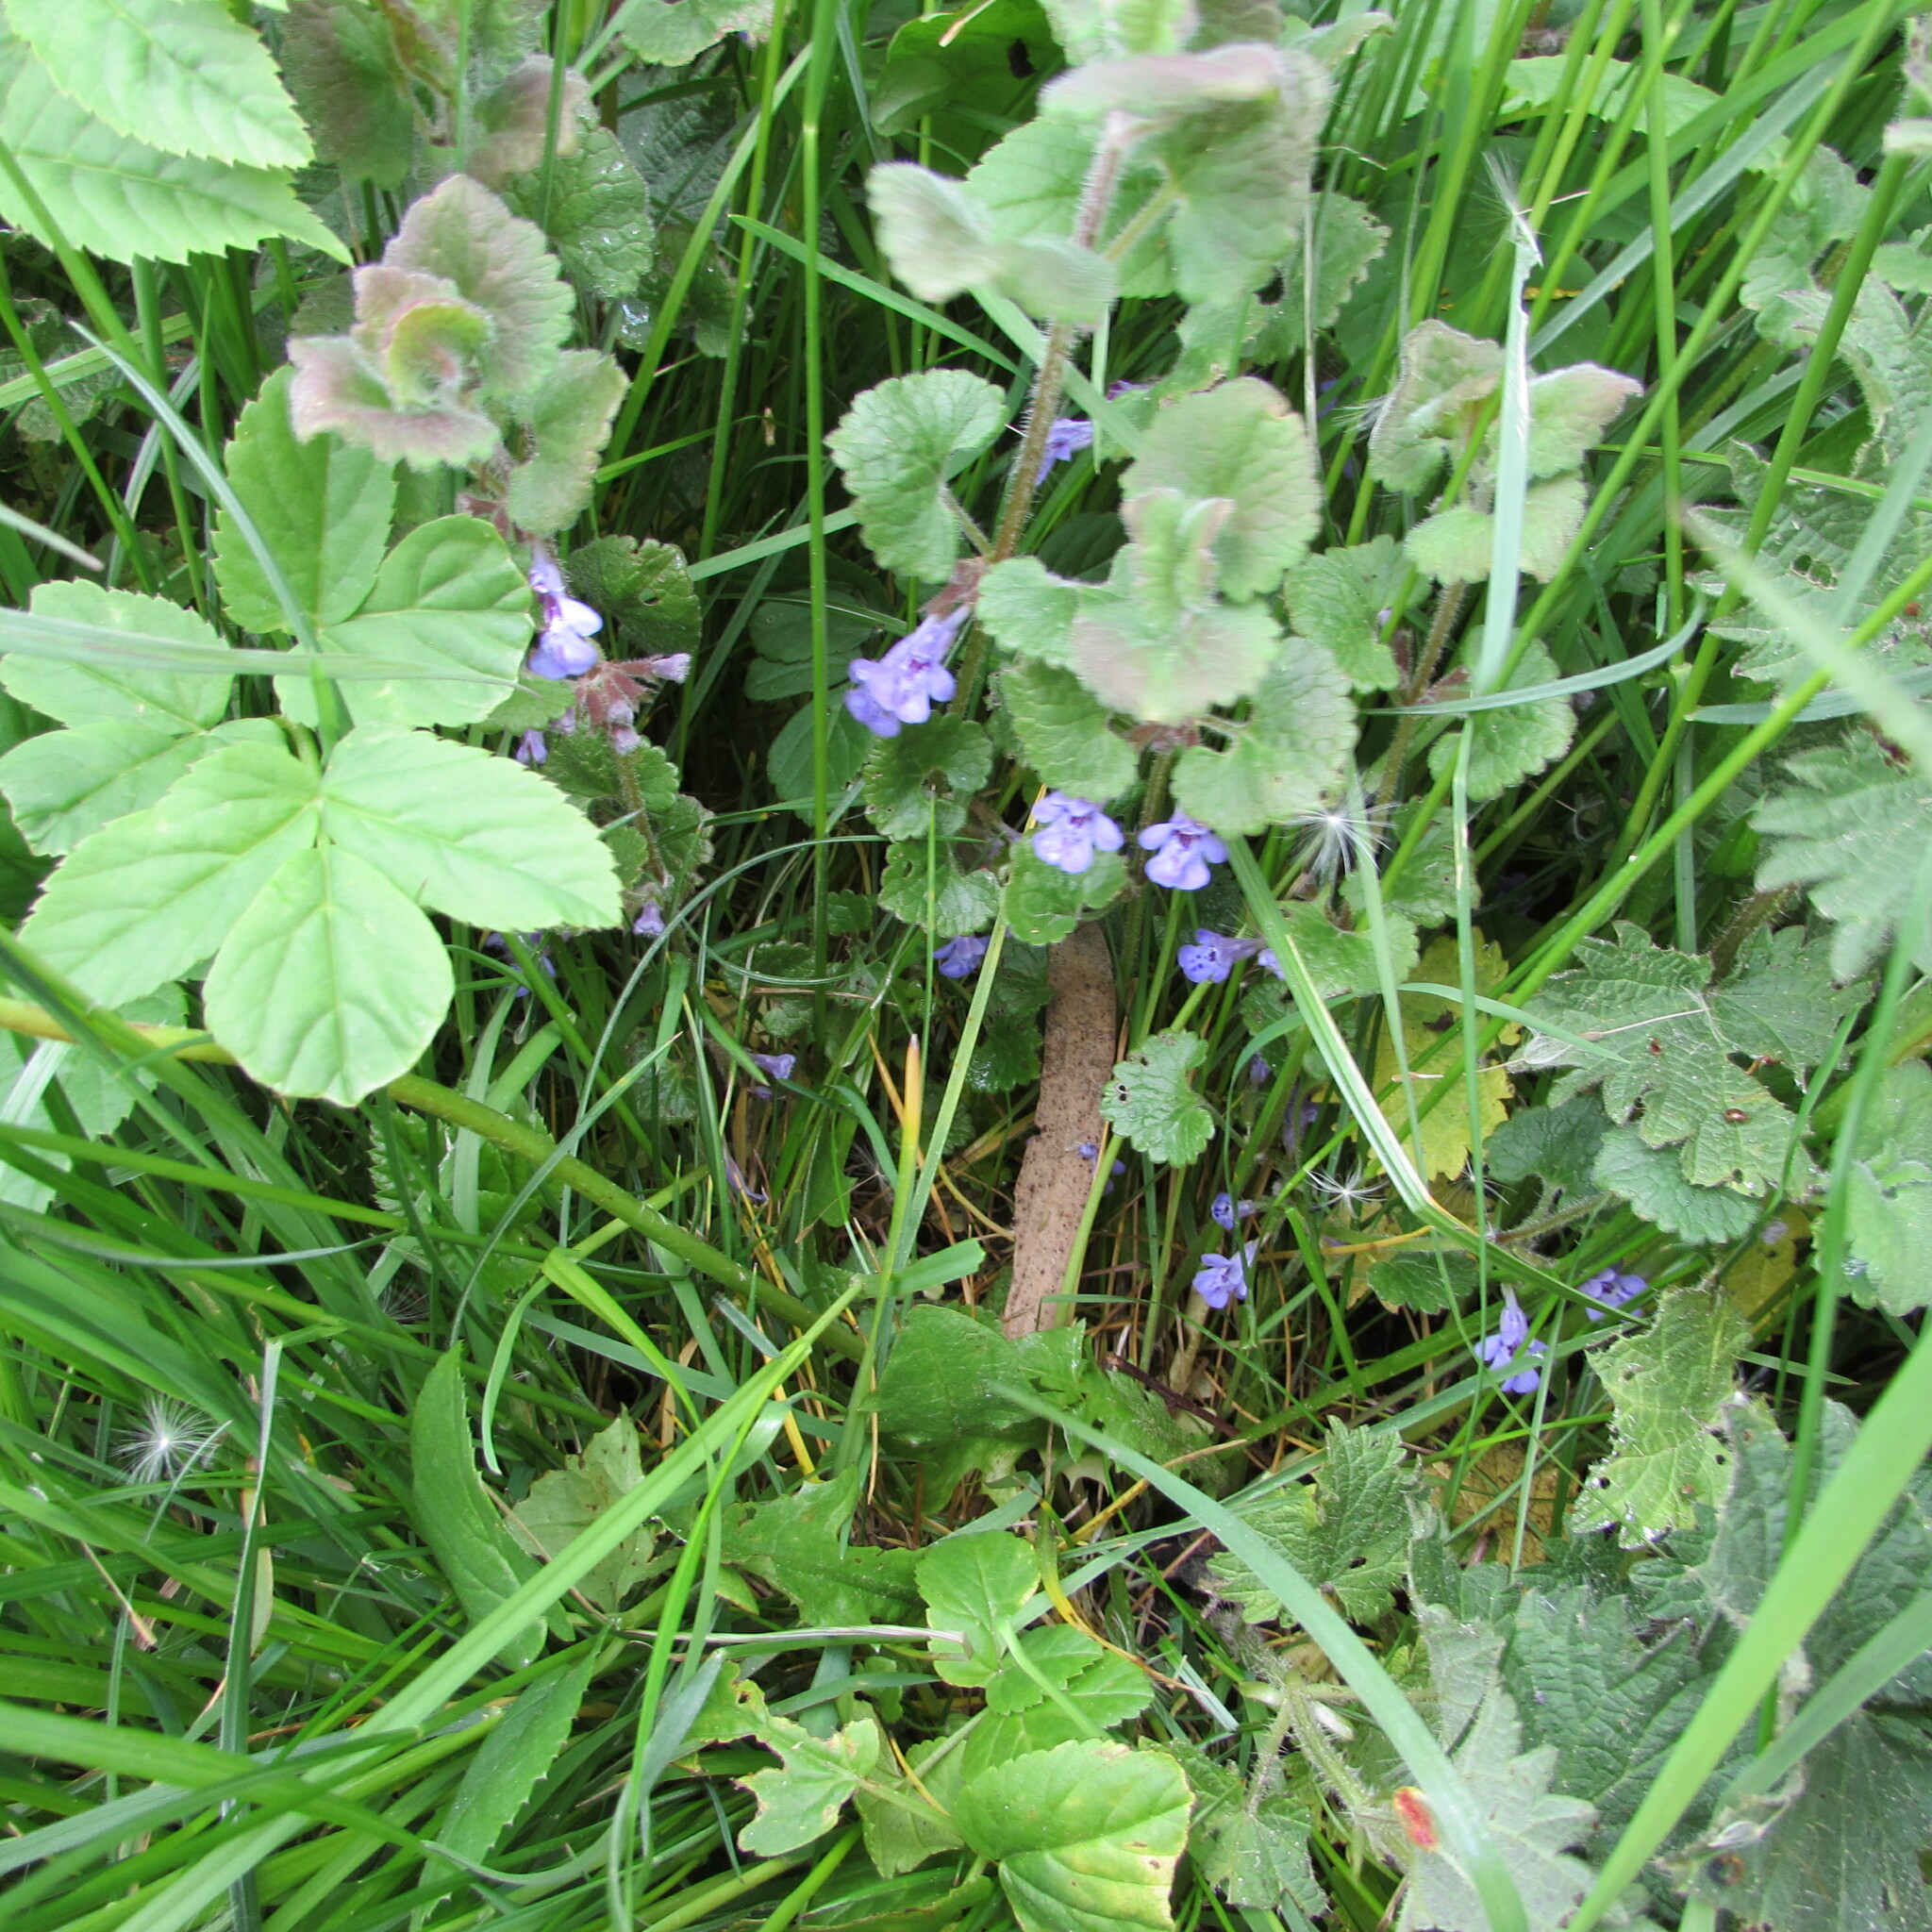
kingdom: Plantae
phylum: Tracheophyta
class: Magnoliopsida
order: Lamiales
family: Lamiaceae
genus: Glechoma
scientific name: Glechoma hederacea
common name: Ground ivy
